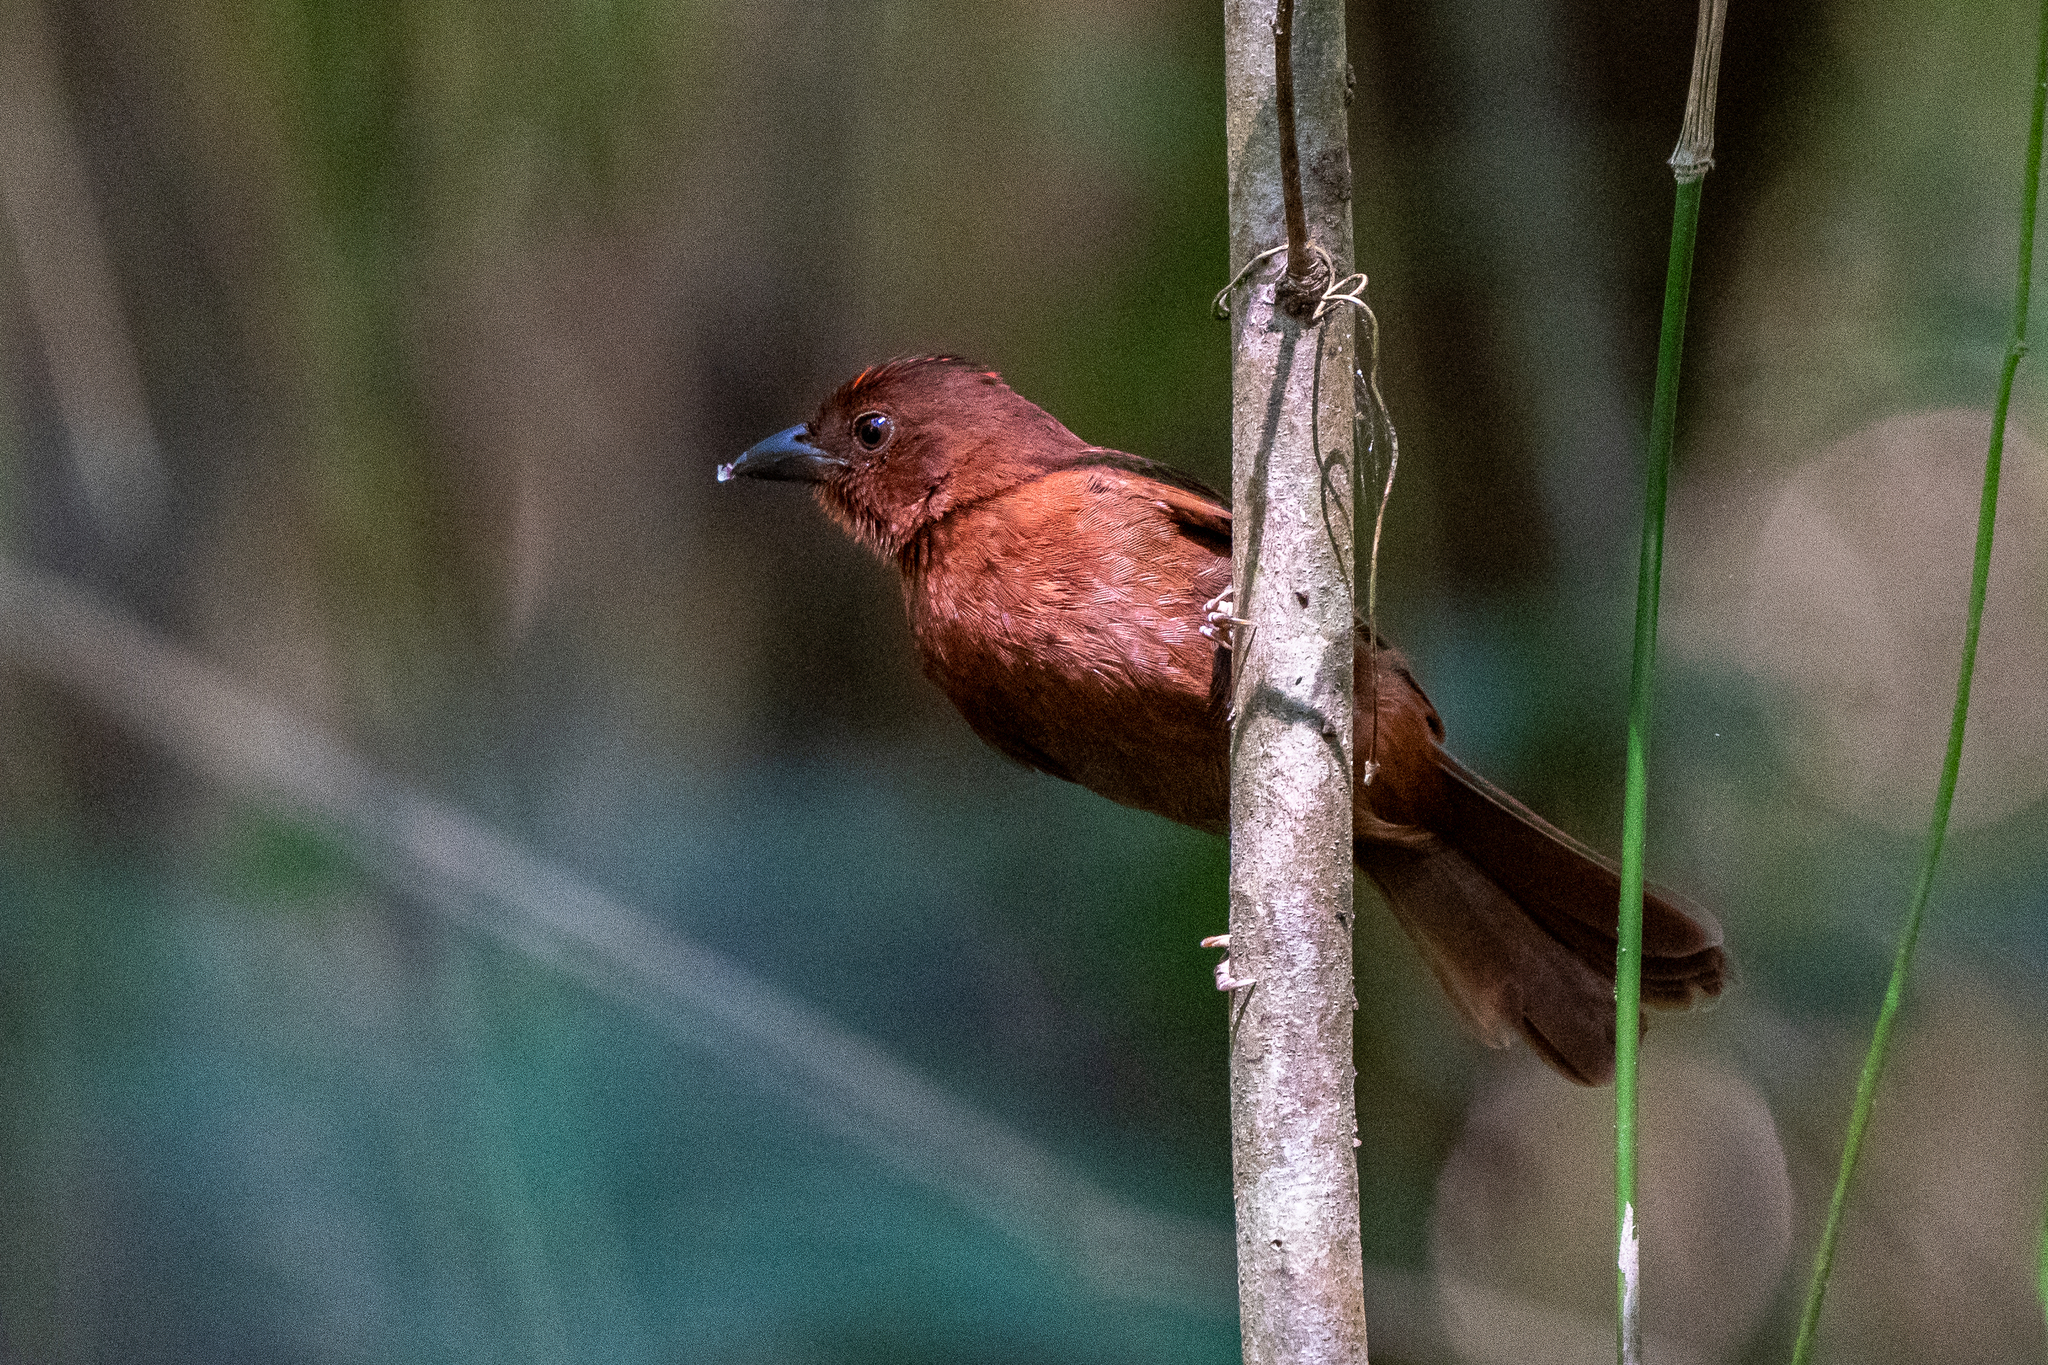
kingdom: Animalia
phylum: Chordata
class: Aves
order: Passeriformes
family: Cardinalidae
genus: Habia
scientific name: Habia rubica
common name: Red-crowned ant-tanager
